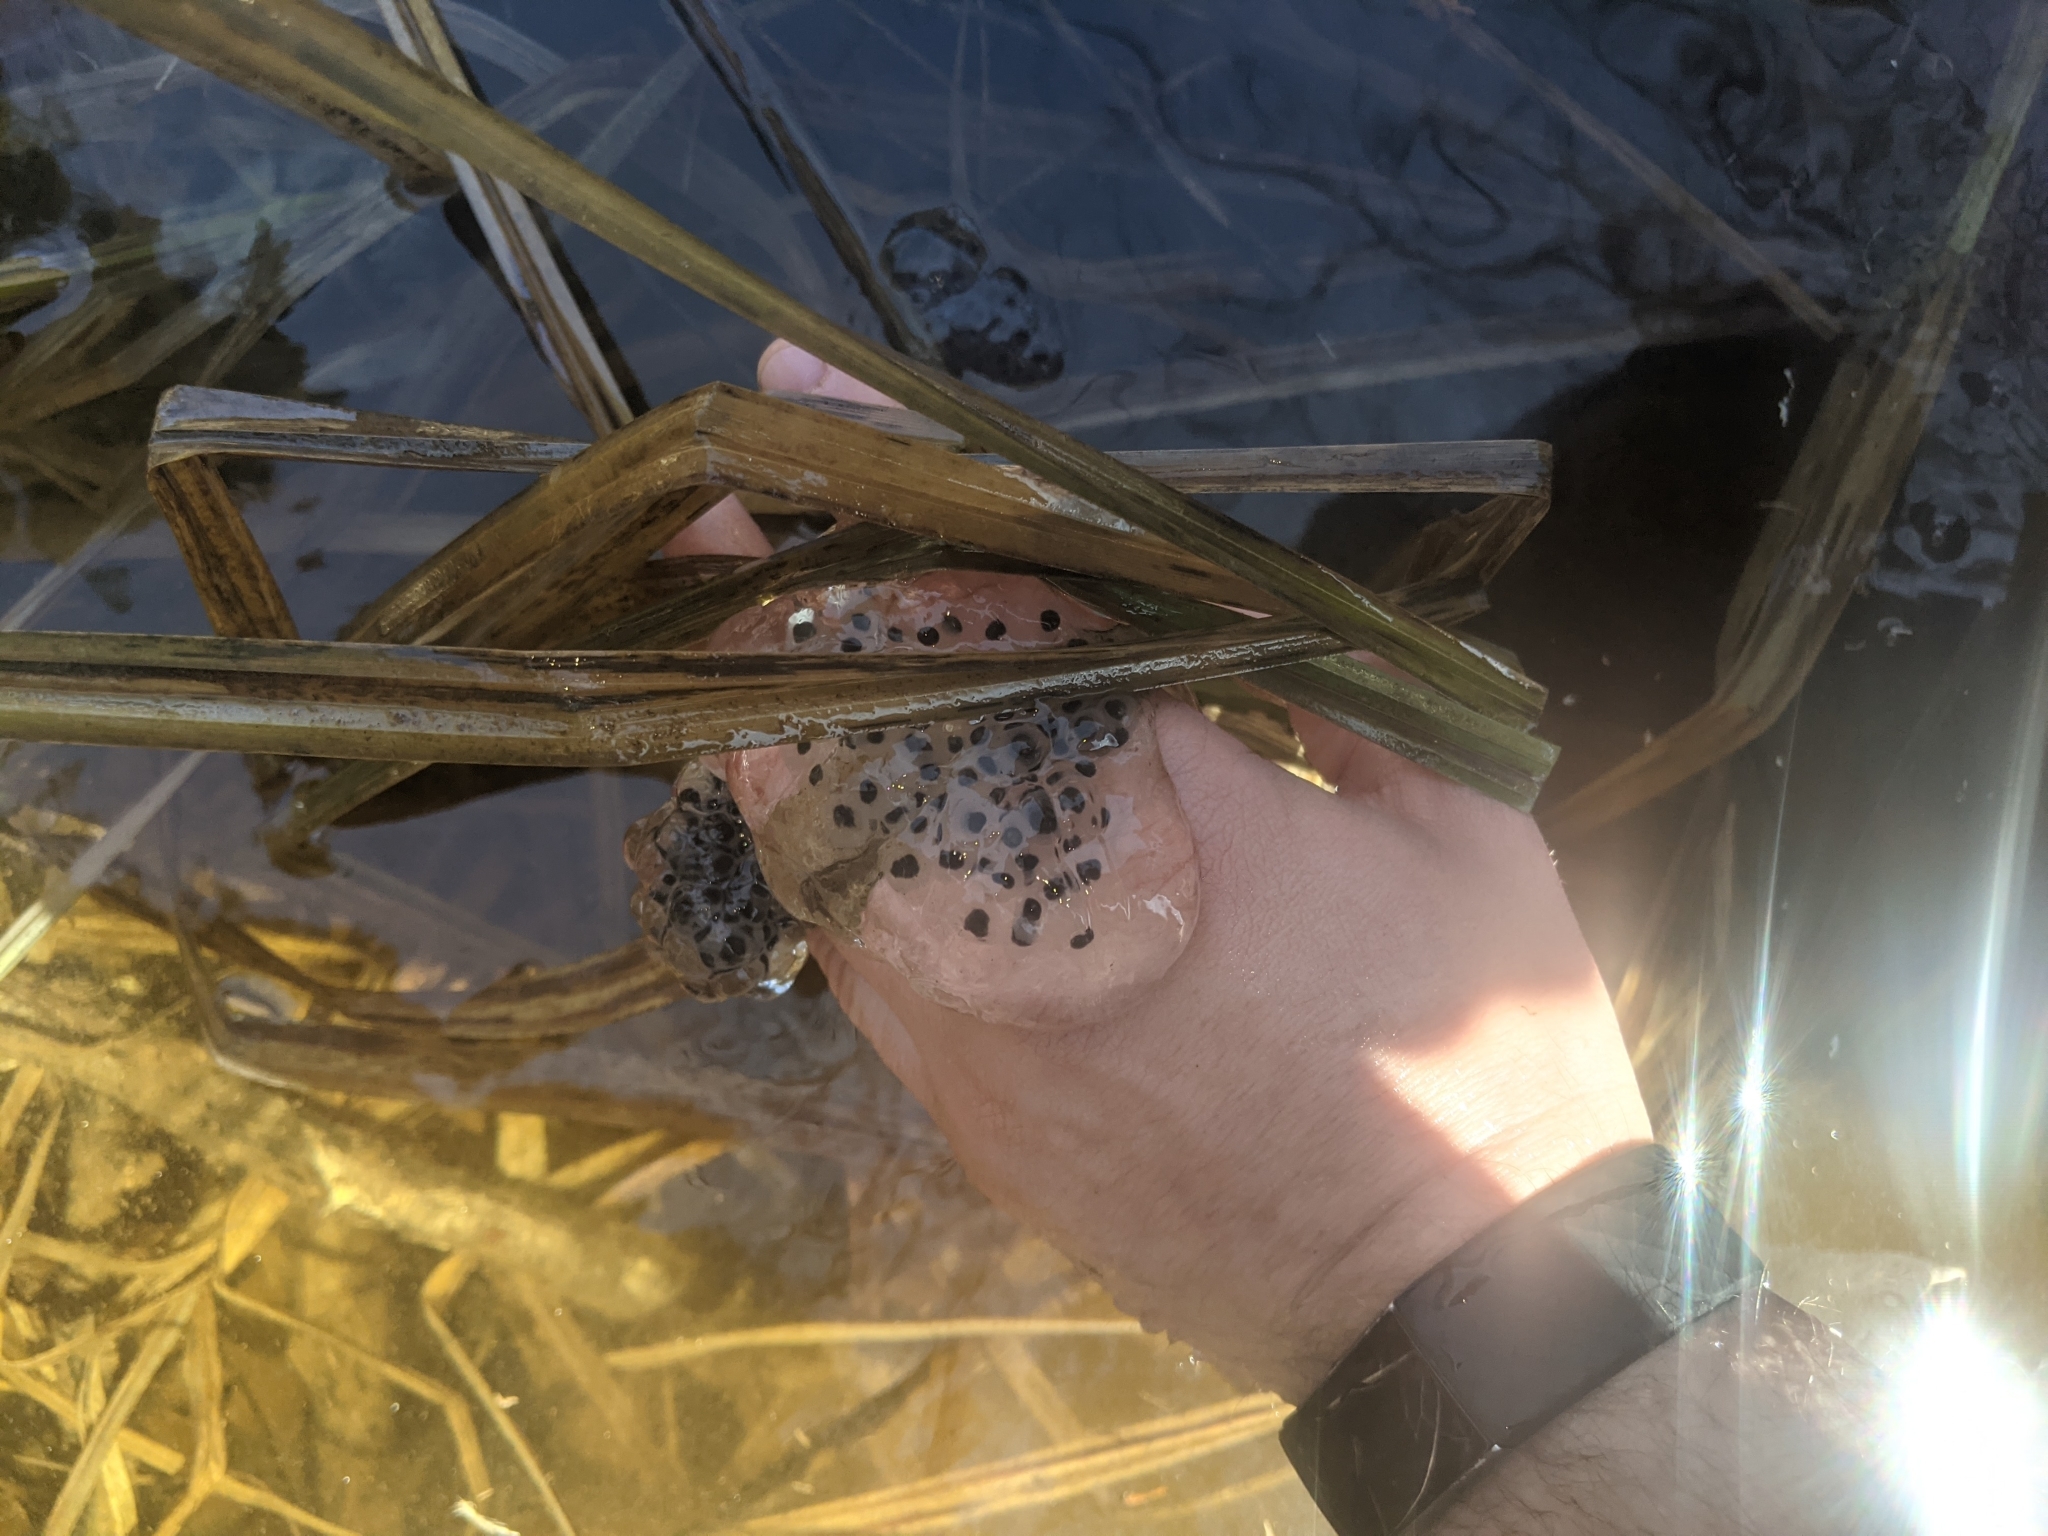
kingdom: Animalia
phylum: Chordata
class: Amphibia
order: Caudata
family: Ambystomatidae
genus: Ambystoma
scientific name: Ambystoma maculatum
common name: Spotted salamander
